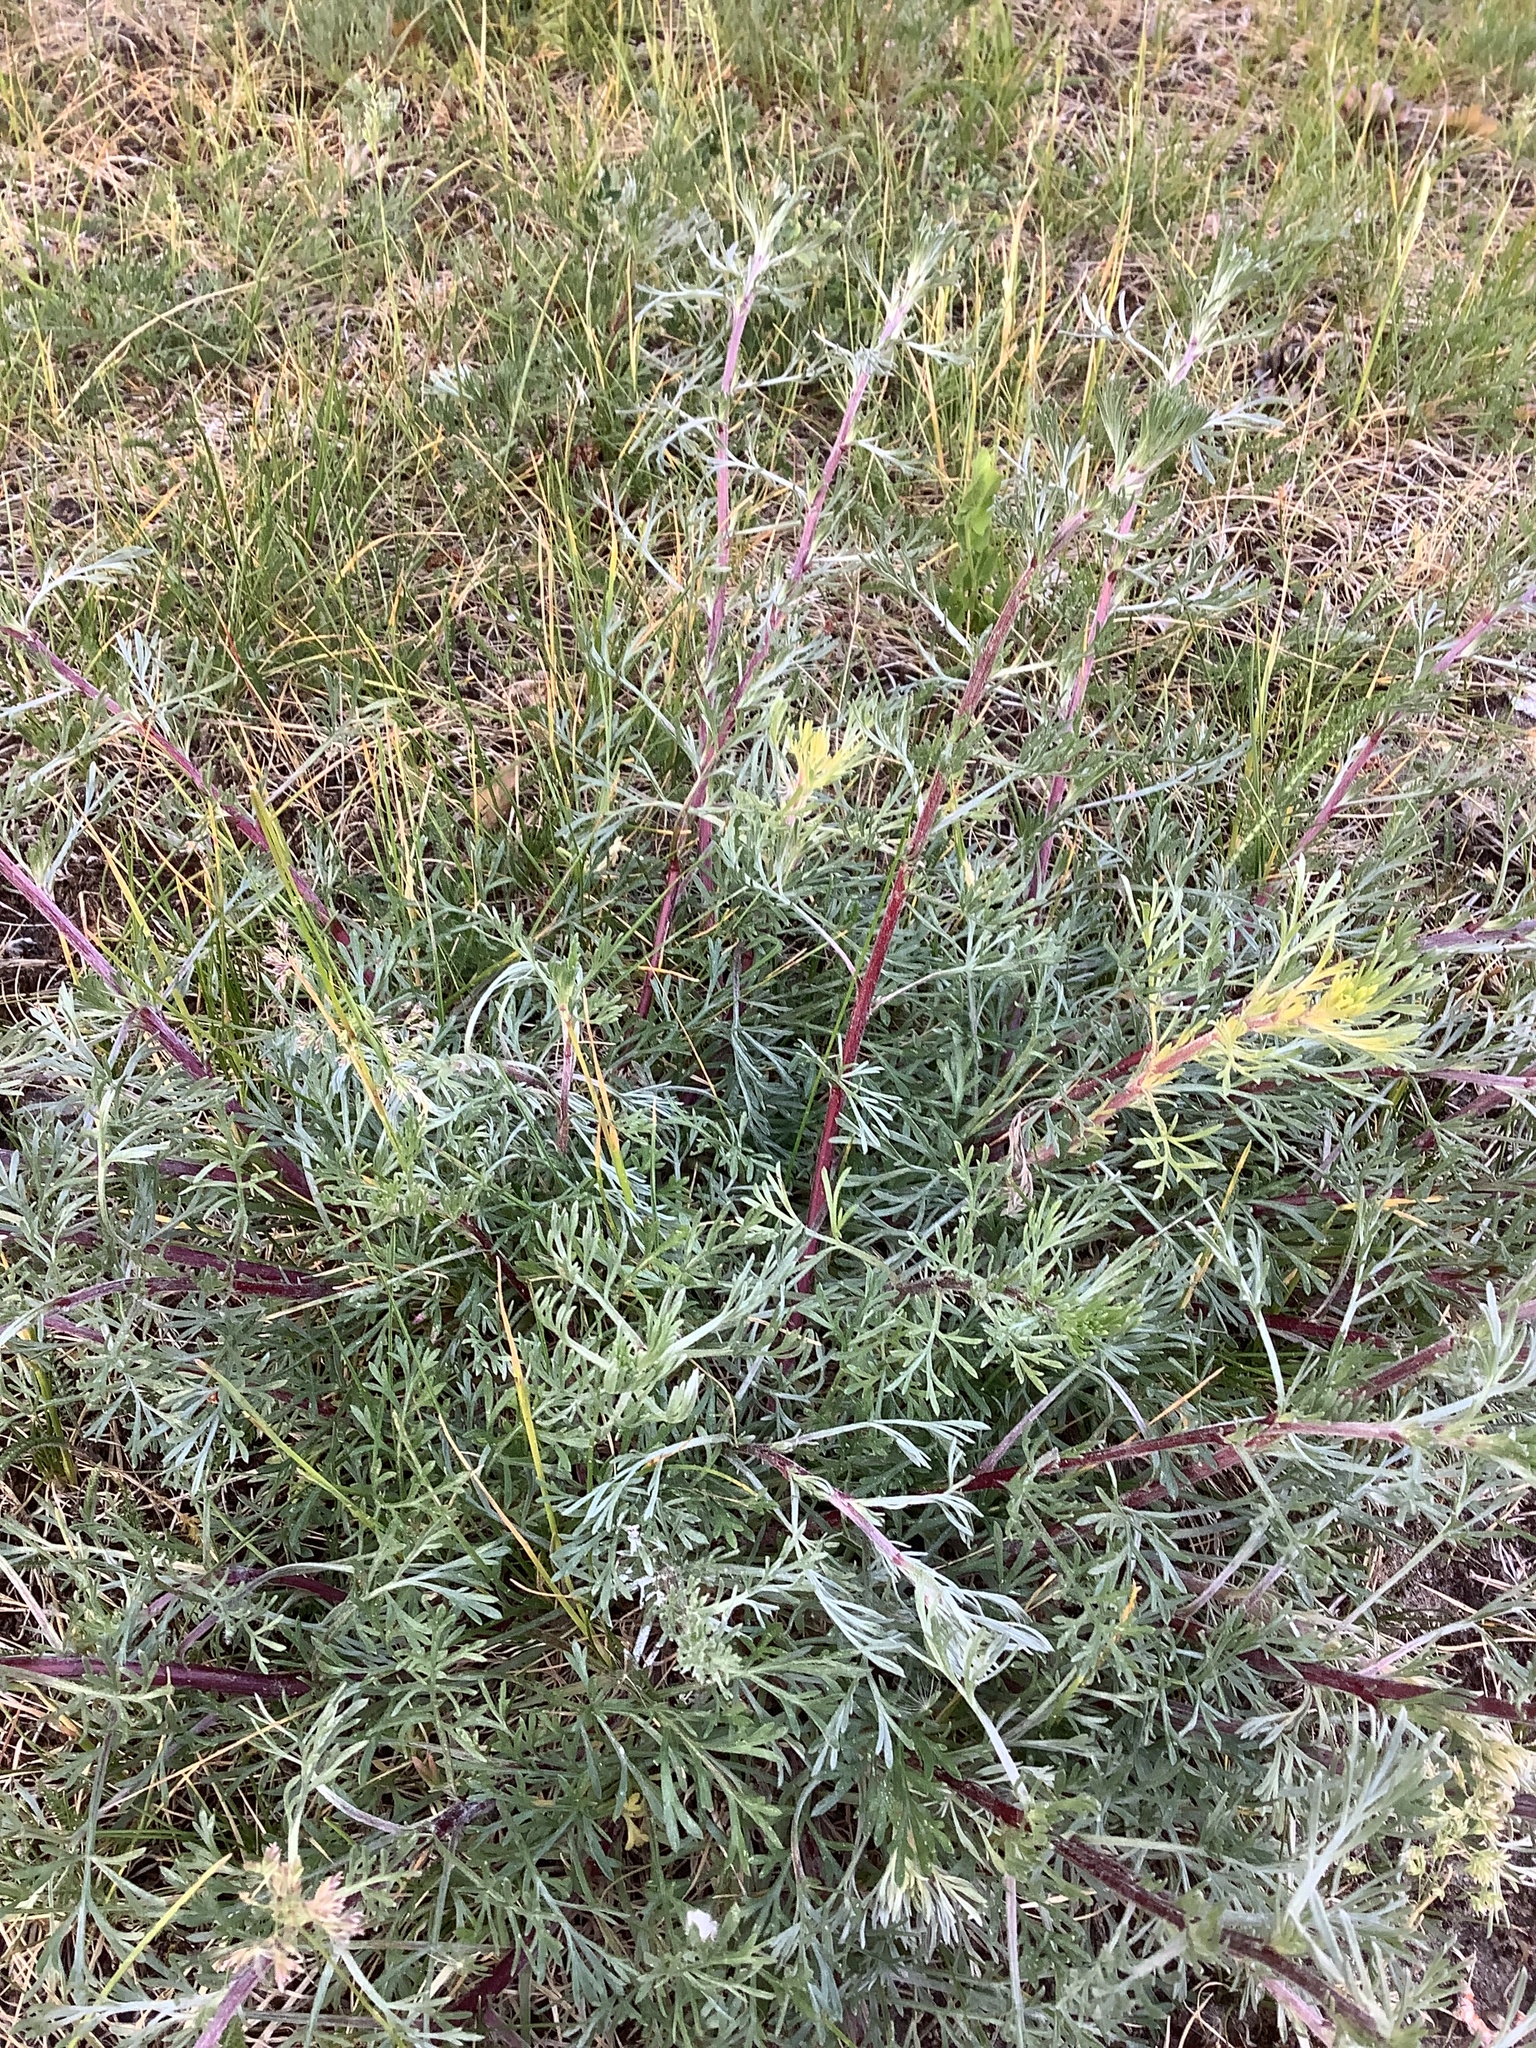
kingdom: Plantae
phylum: Tracheophyta
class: Magnoliopsida
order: Asterales
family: Asteraceae
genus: Artemisia
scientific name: Artemisia campestris
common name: Field wormwood
